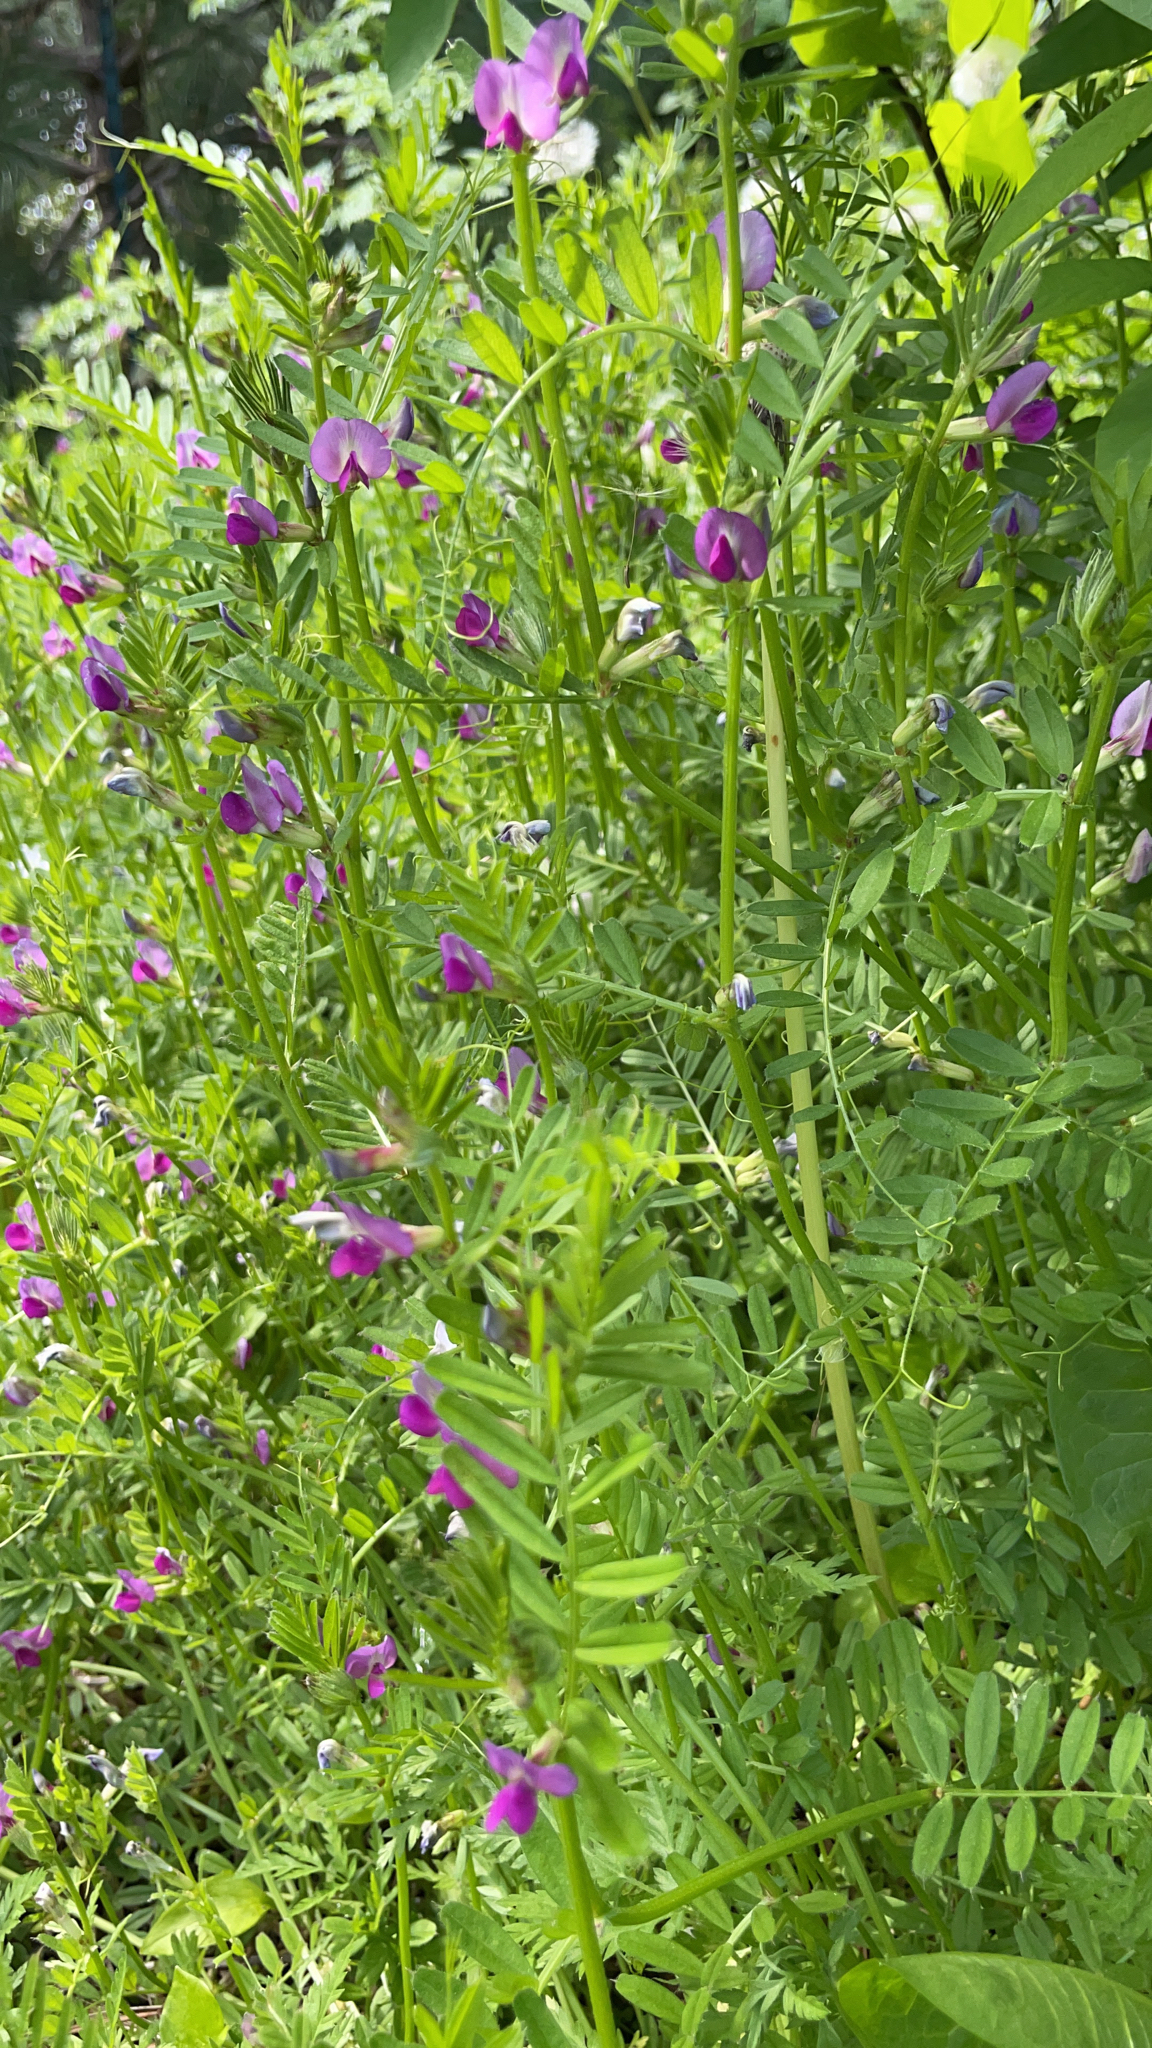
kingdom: Plantae
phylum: Tracheophyta
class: Magnoliopsida
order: Fabales
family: Fabaceae
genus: Vicia
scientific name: Vicia sativa
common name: Garden vetch
